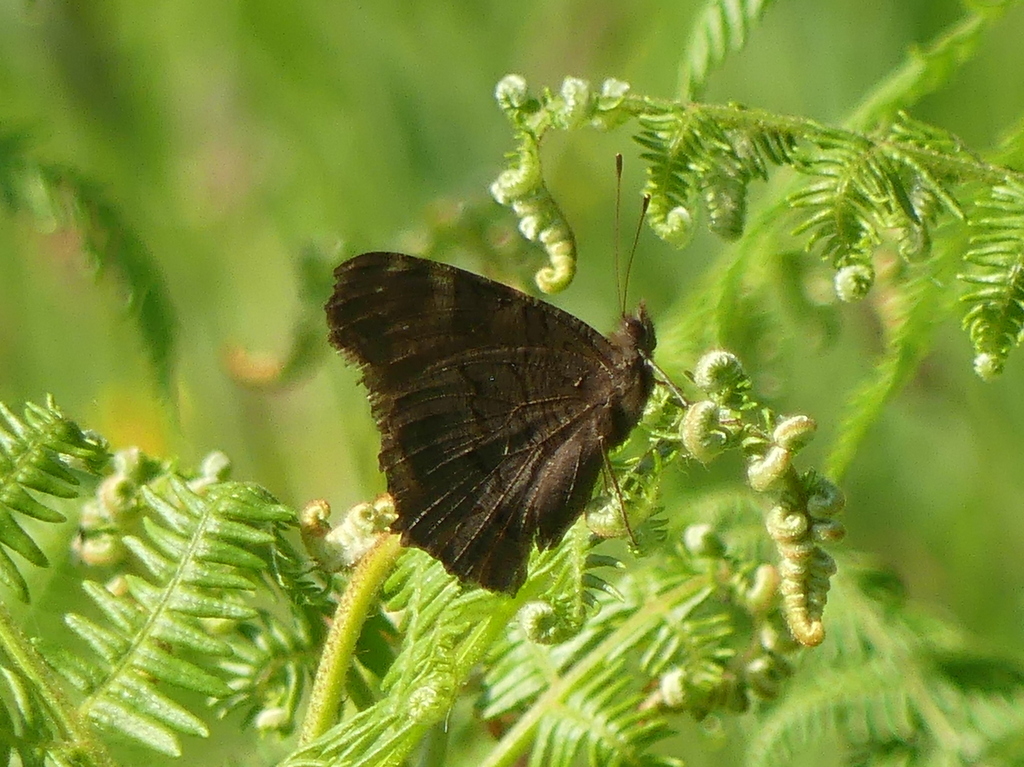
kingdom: Animalia
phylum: Arthropoda
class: Insecta
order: Lepidoptera
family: Nymphalidae
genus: Aglais
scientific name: Aglais io
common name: Peacock
